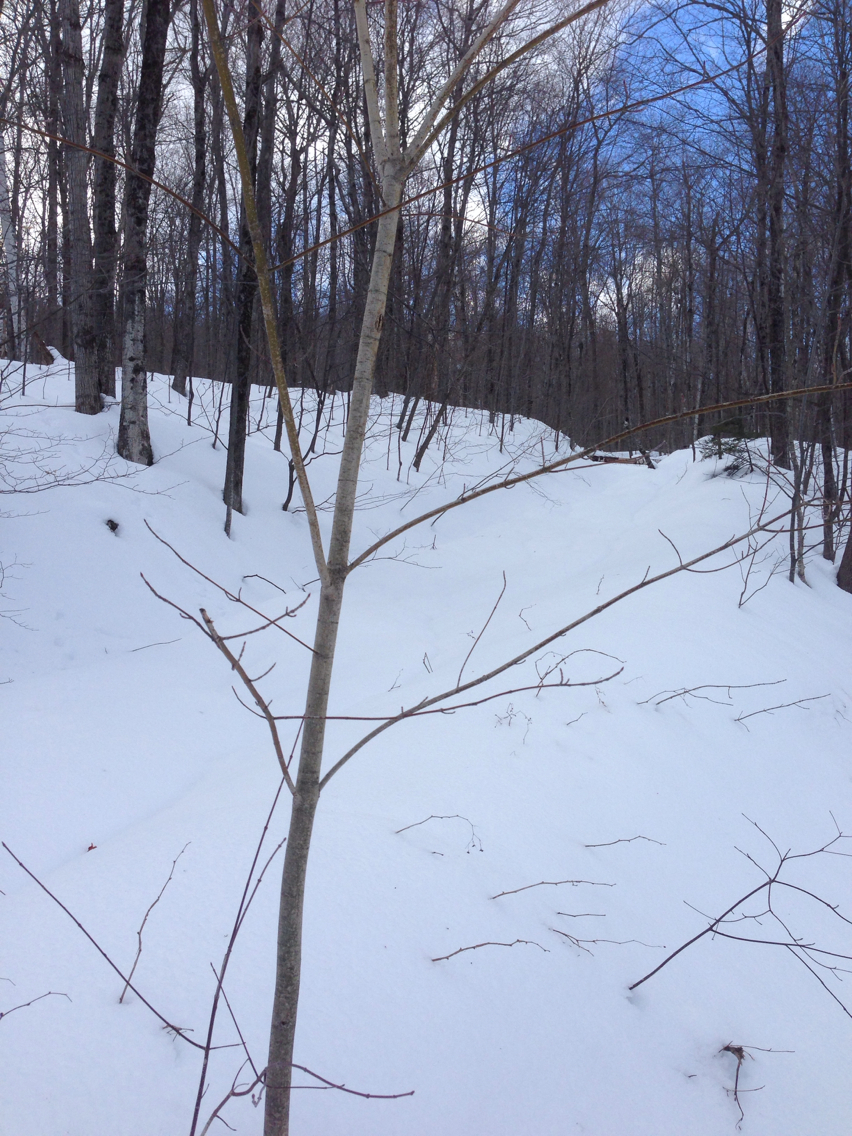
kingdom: Plantae
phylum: Tracheophyta
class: Magnoliopsida
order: Sapindales
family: Sapindaceae
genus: Acer
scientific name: Acer spicatum
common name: Mountain maple
